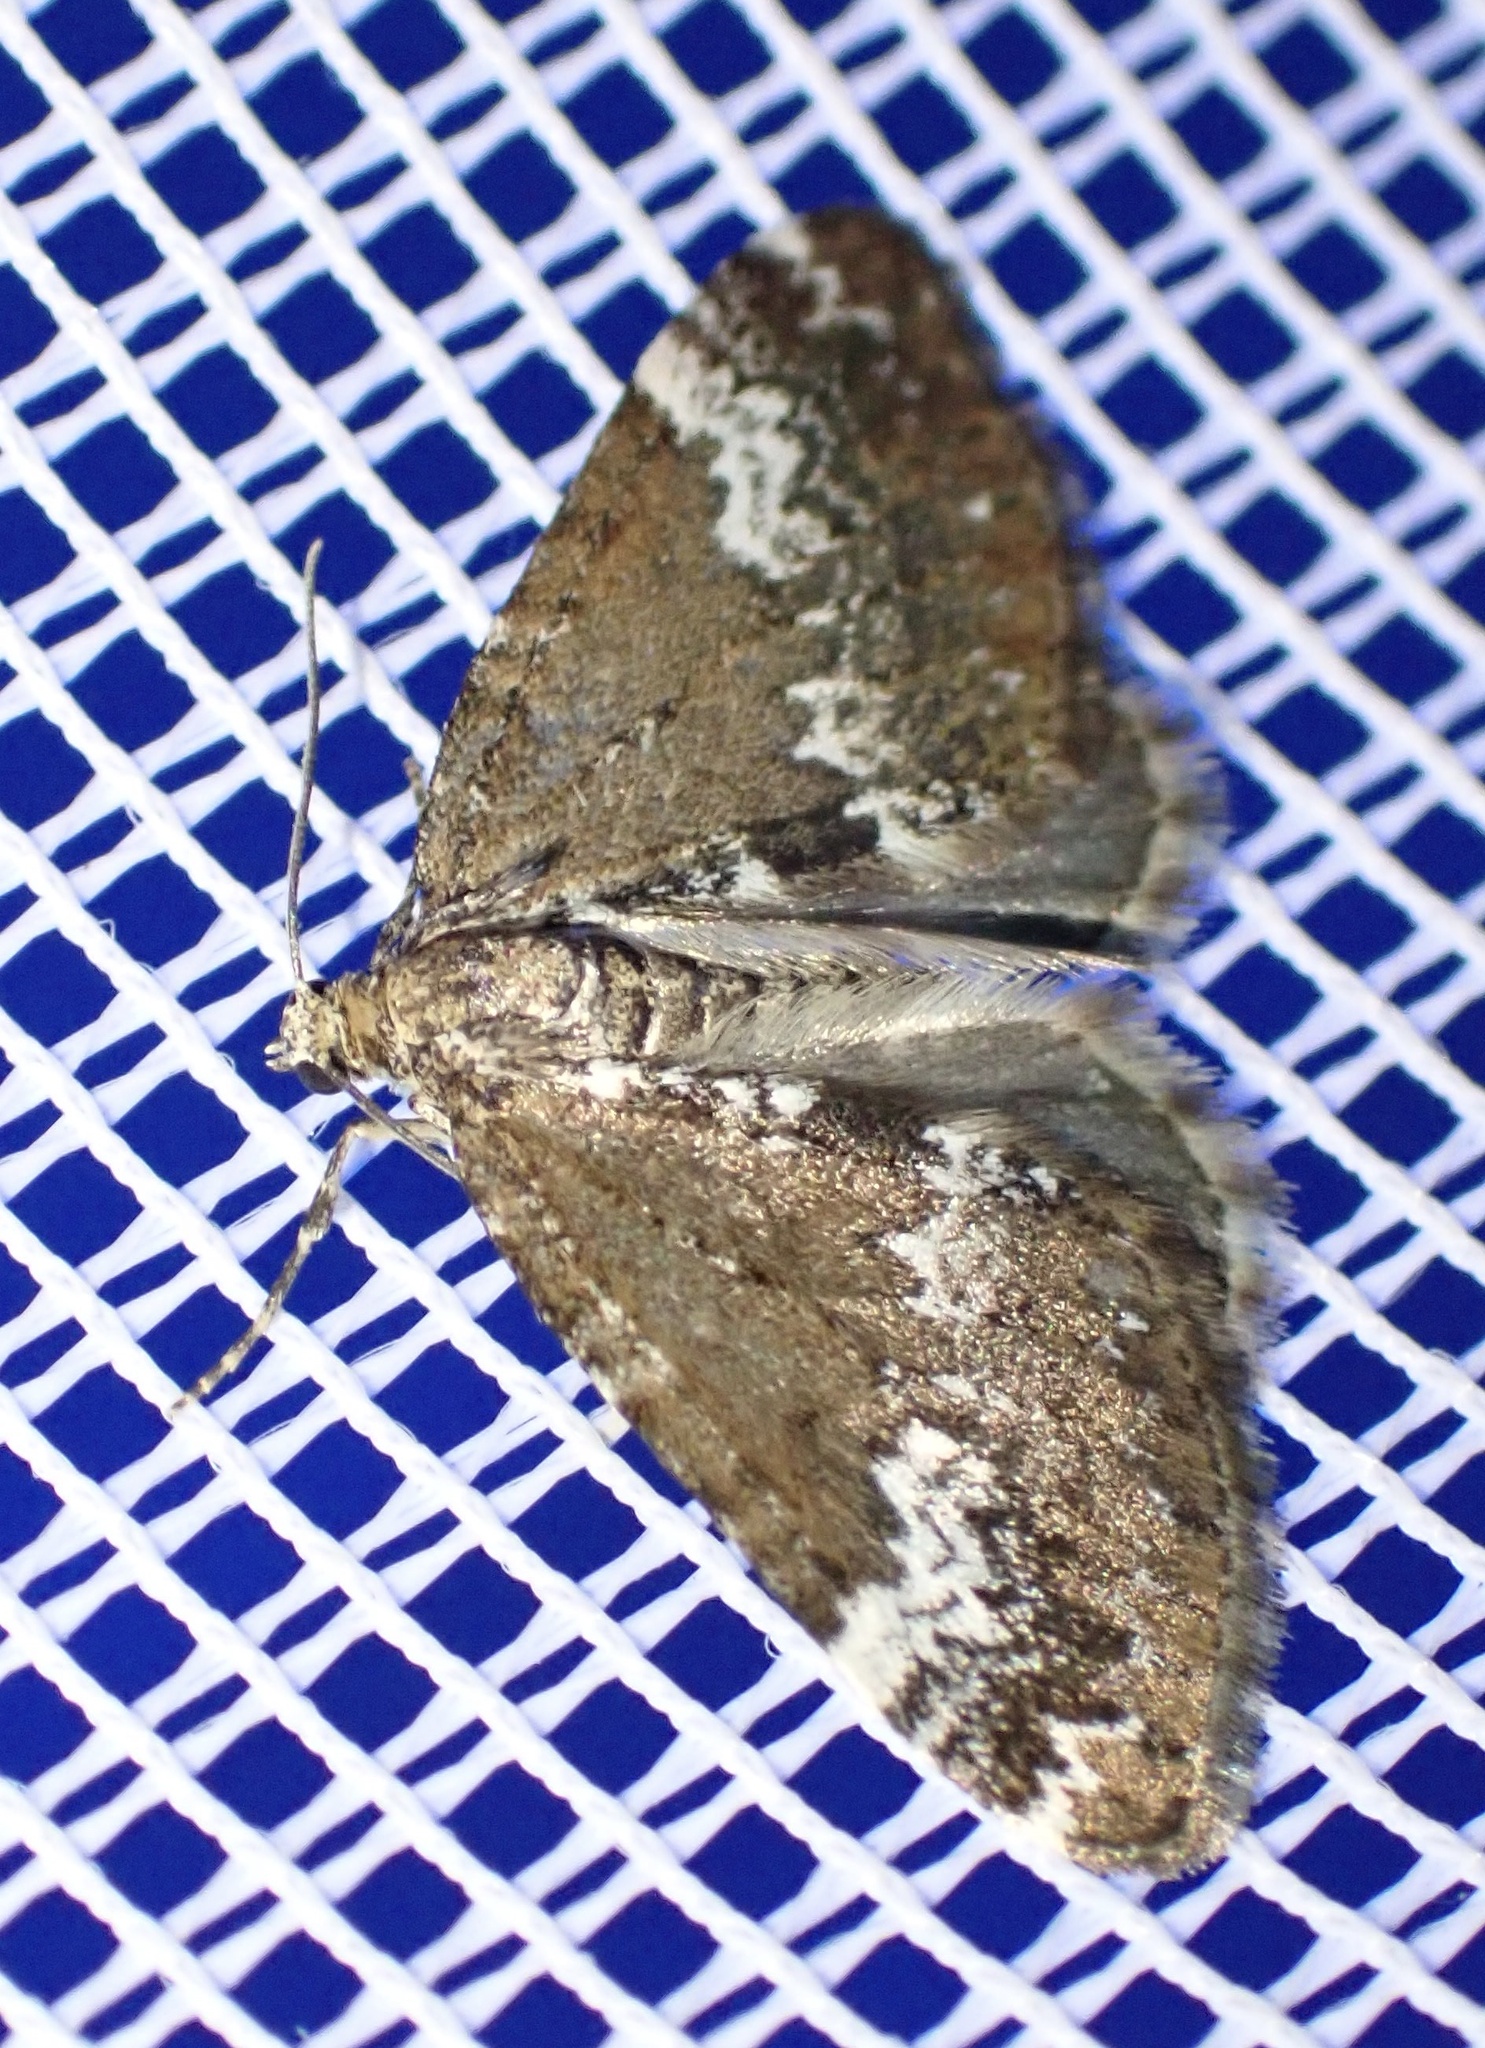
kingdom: Animalia
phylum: Arthropoda
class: Insecta
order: Lepidoptera
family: Geometridae
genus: Perizoma
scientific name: Perizoma alchemillata
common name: Small rivulet
